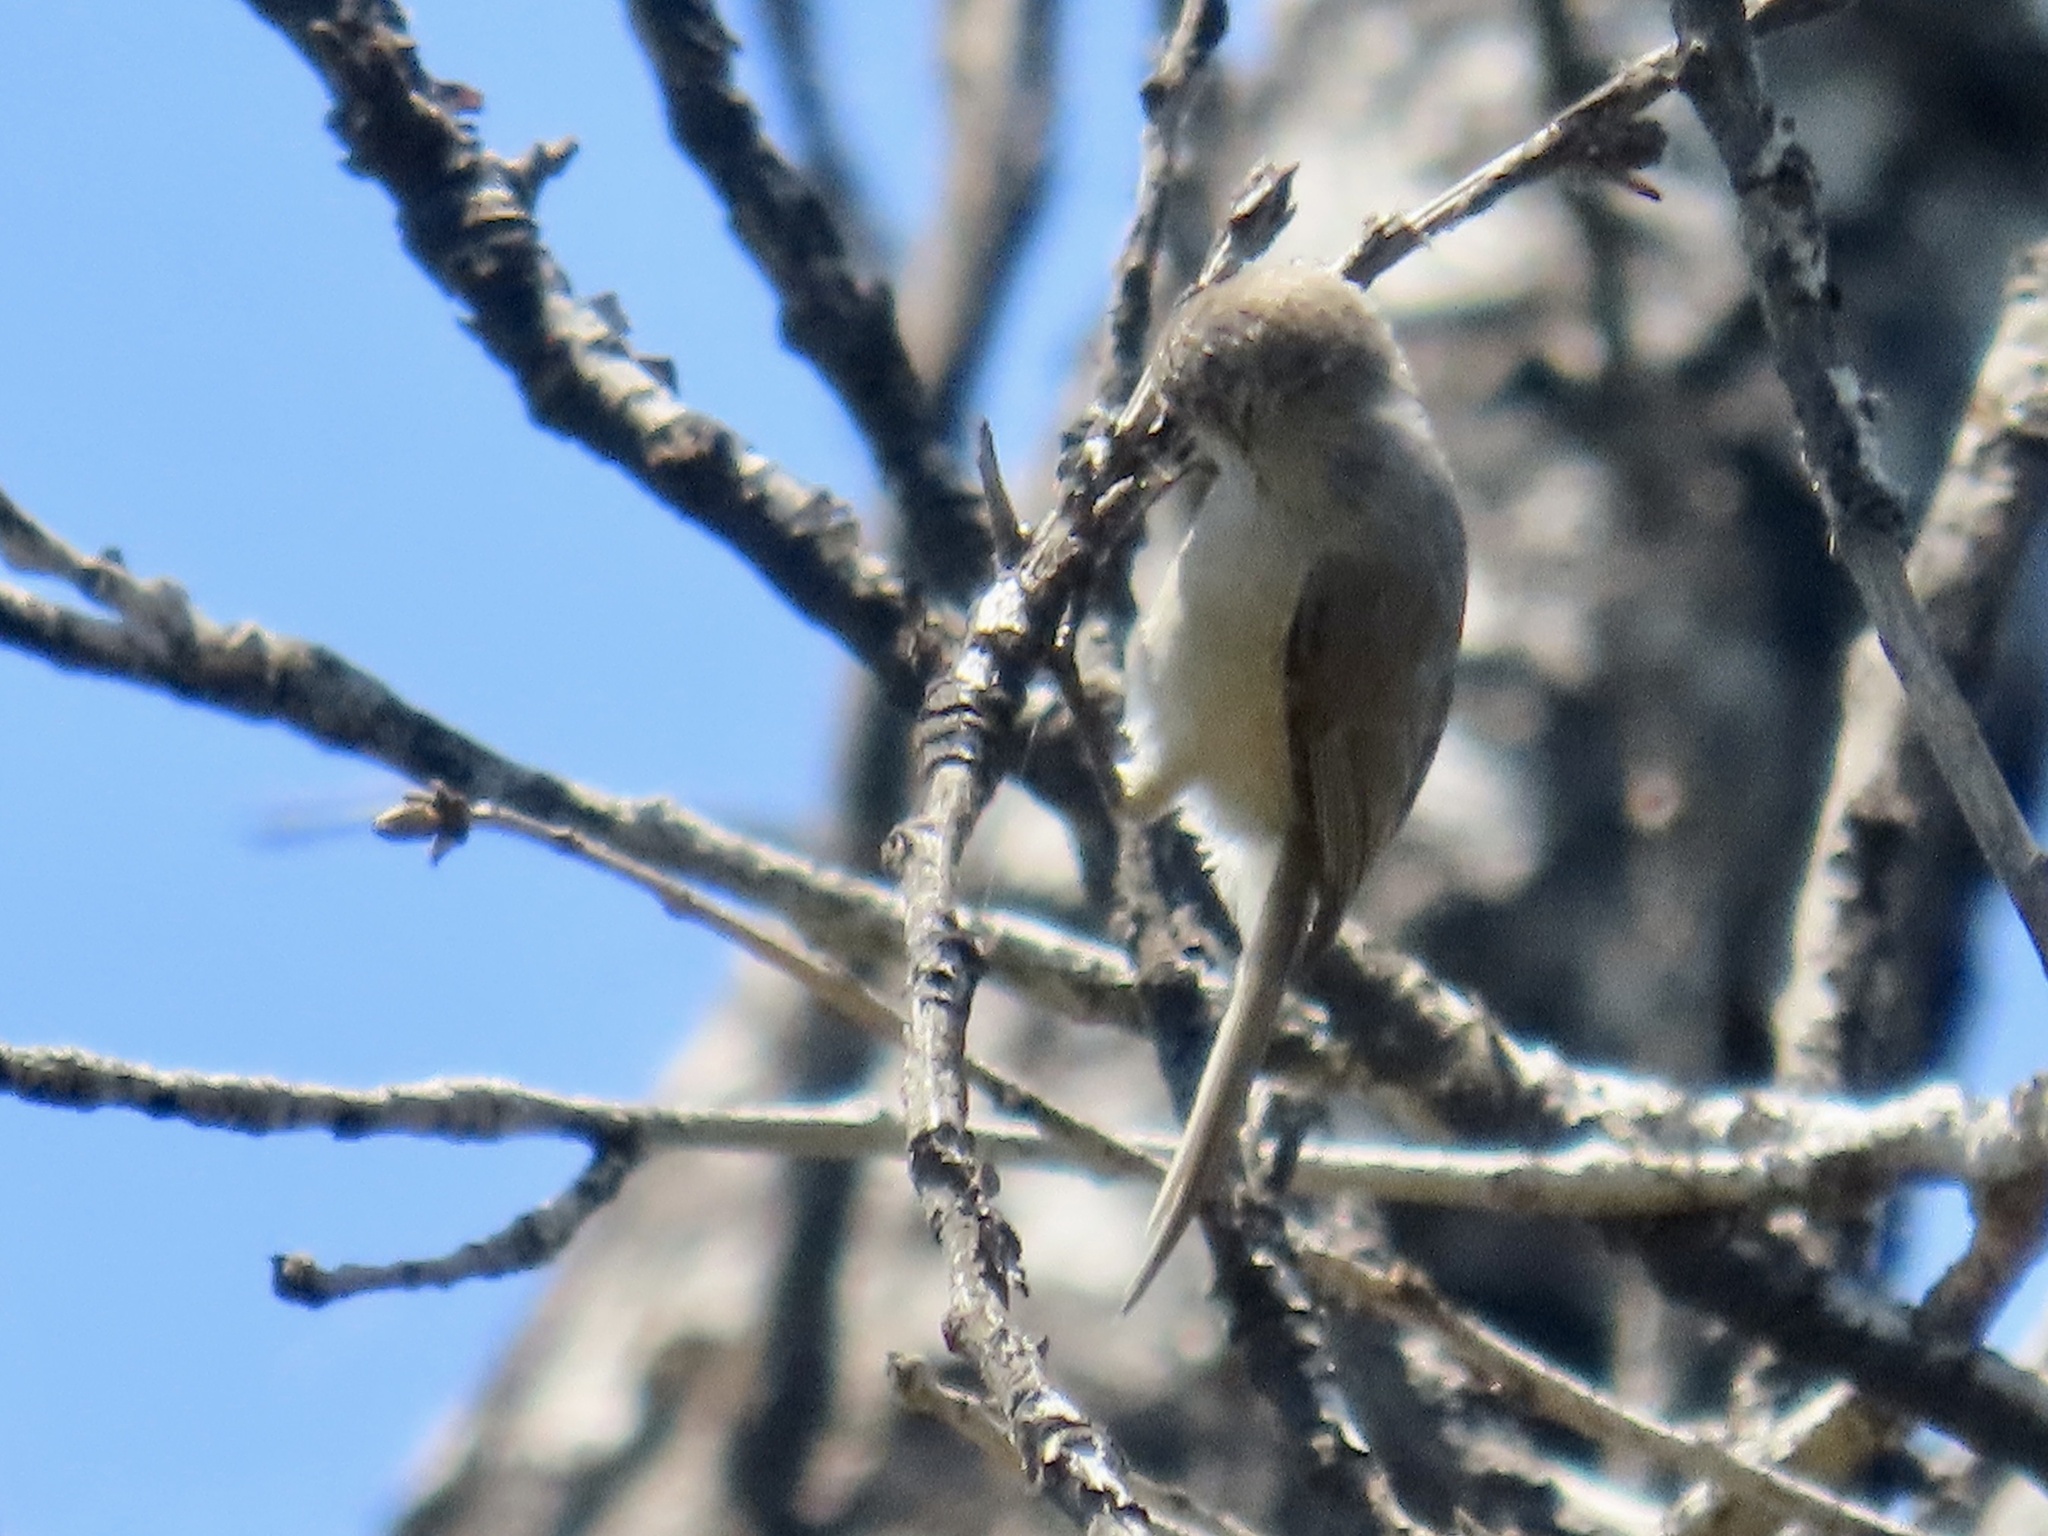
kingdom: Animalia
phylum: Chordata
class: Aves
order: Passeriformes
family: Aegithalidae
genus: Psaltriparus
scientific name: Psaltriparus minimus
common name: American bushtit
